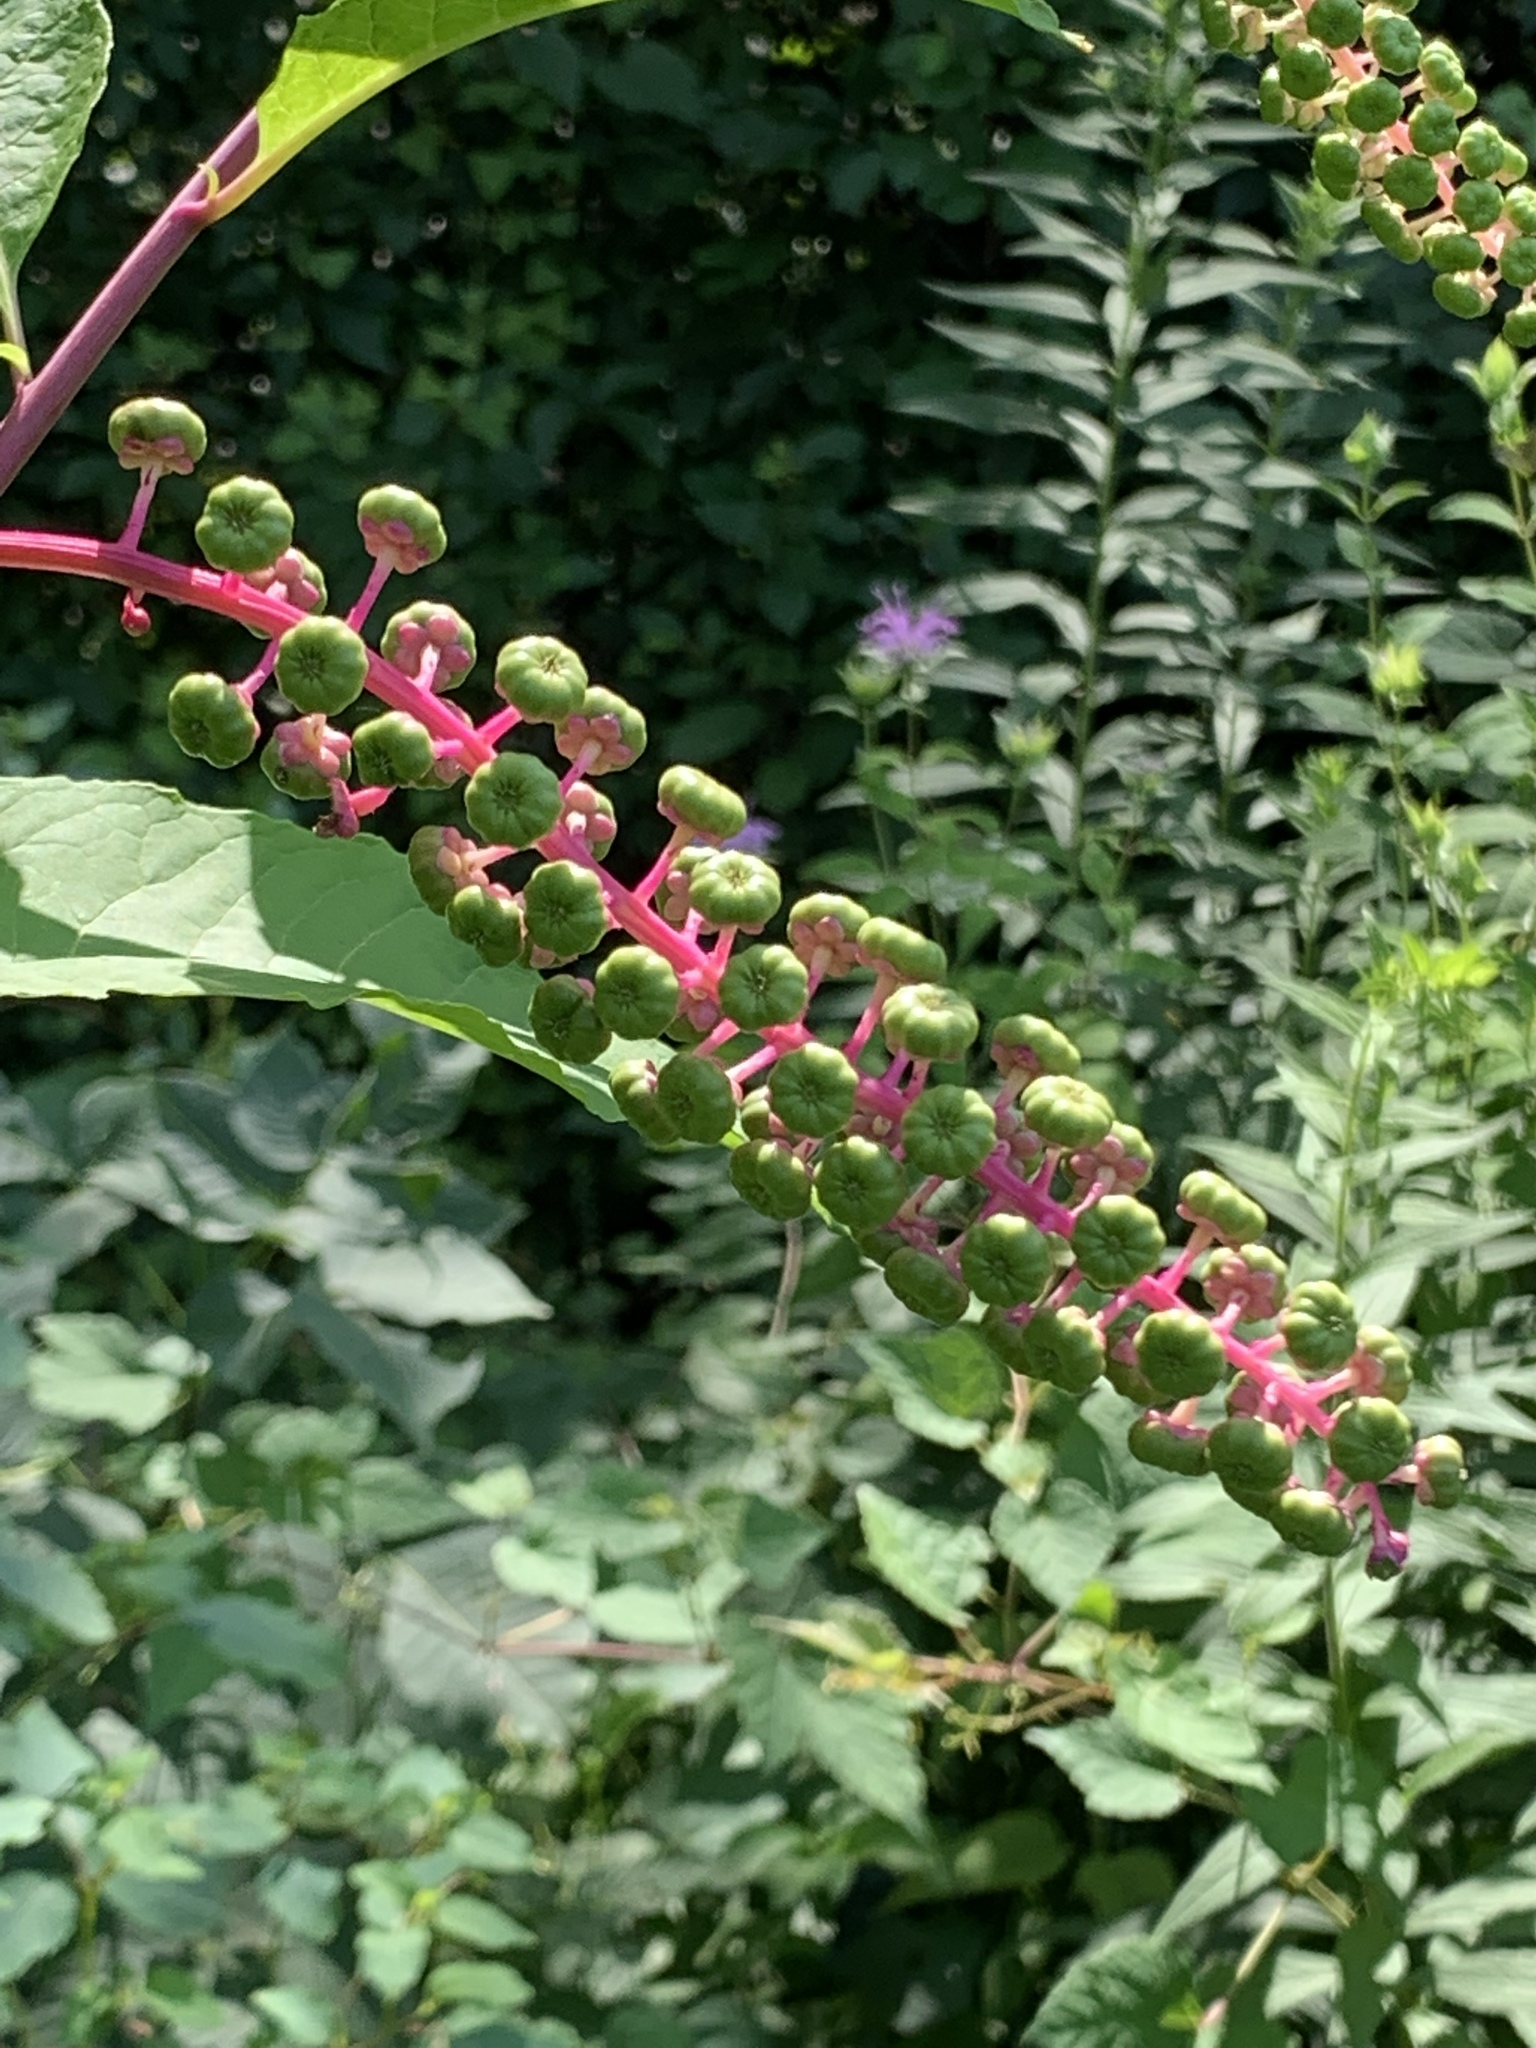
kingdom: Plantae
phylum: Tracheophyta
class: Magnoliopsida
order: Caryophyllales
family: Phytolaccaceae
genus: Phytolacca
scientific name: Phytolacca americana
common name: American pokeweed
